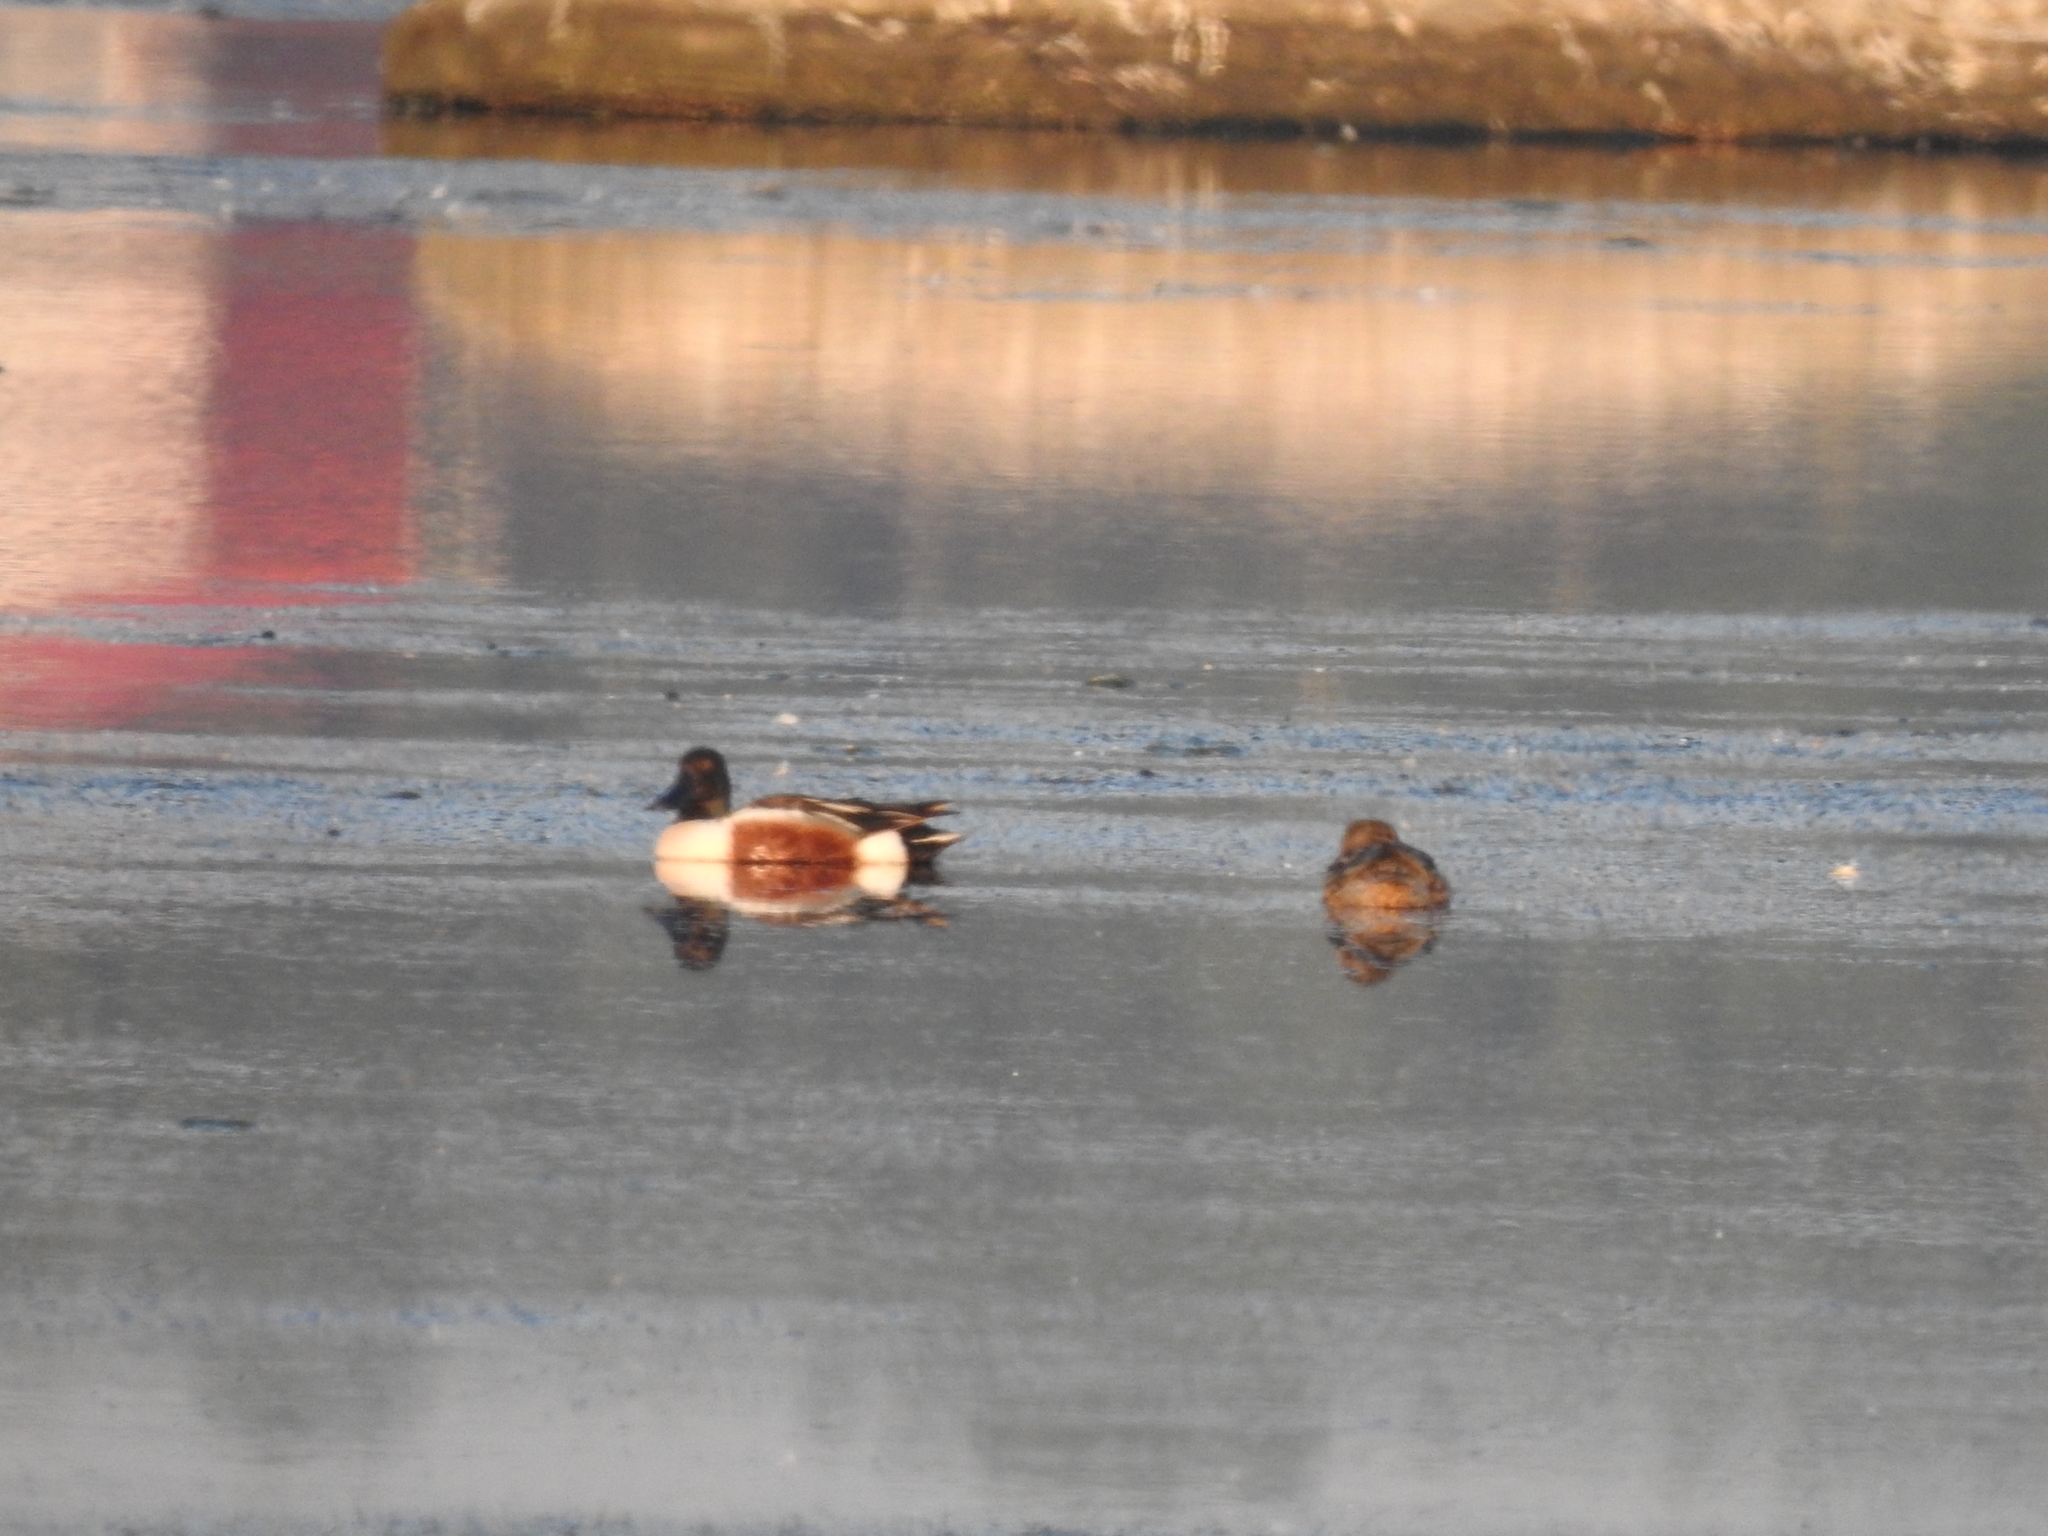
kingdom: Animalia
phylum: Chordata
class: Aves
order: Anseriformes
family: Anatidae
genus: Spatula
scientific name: Spatula clypeata
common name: Northern shoveler
